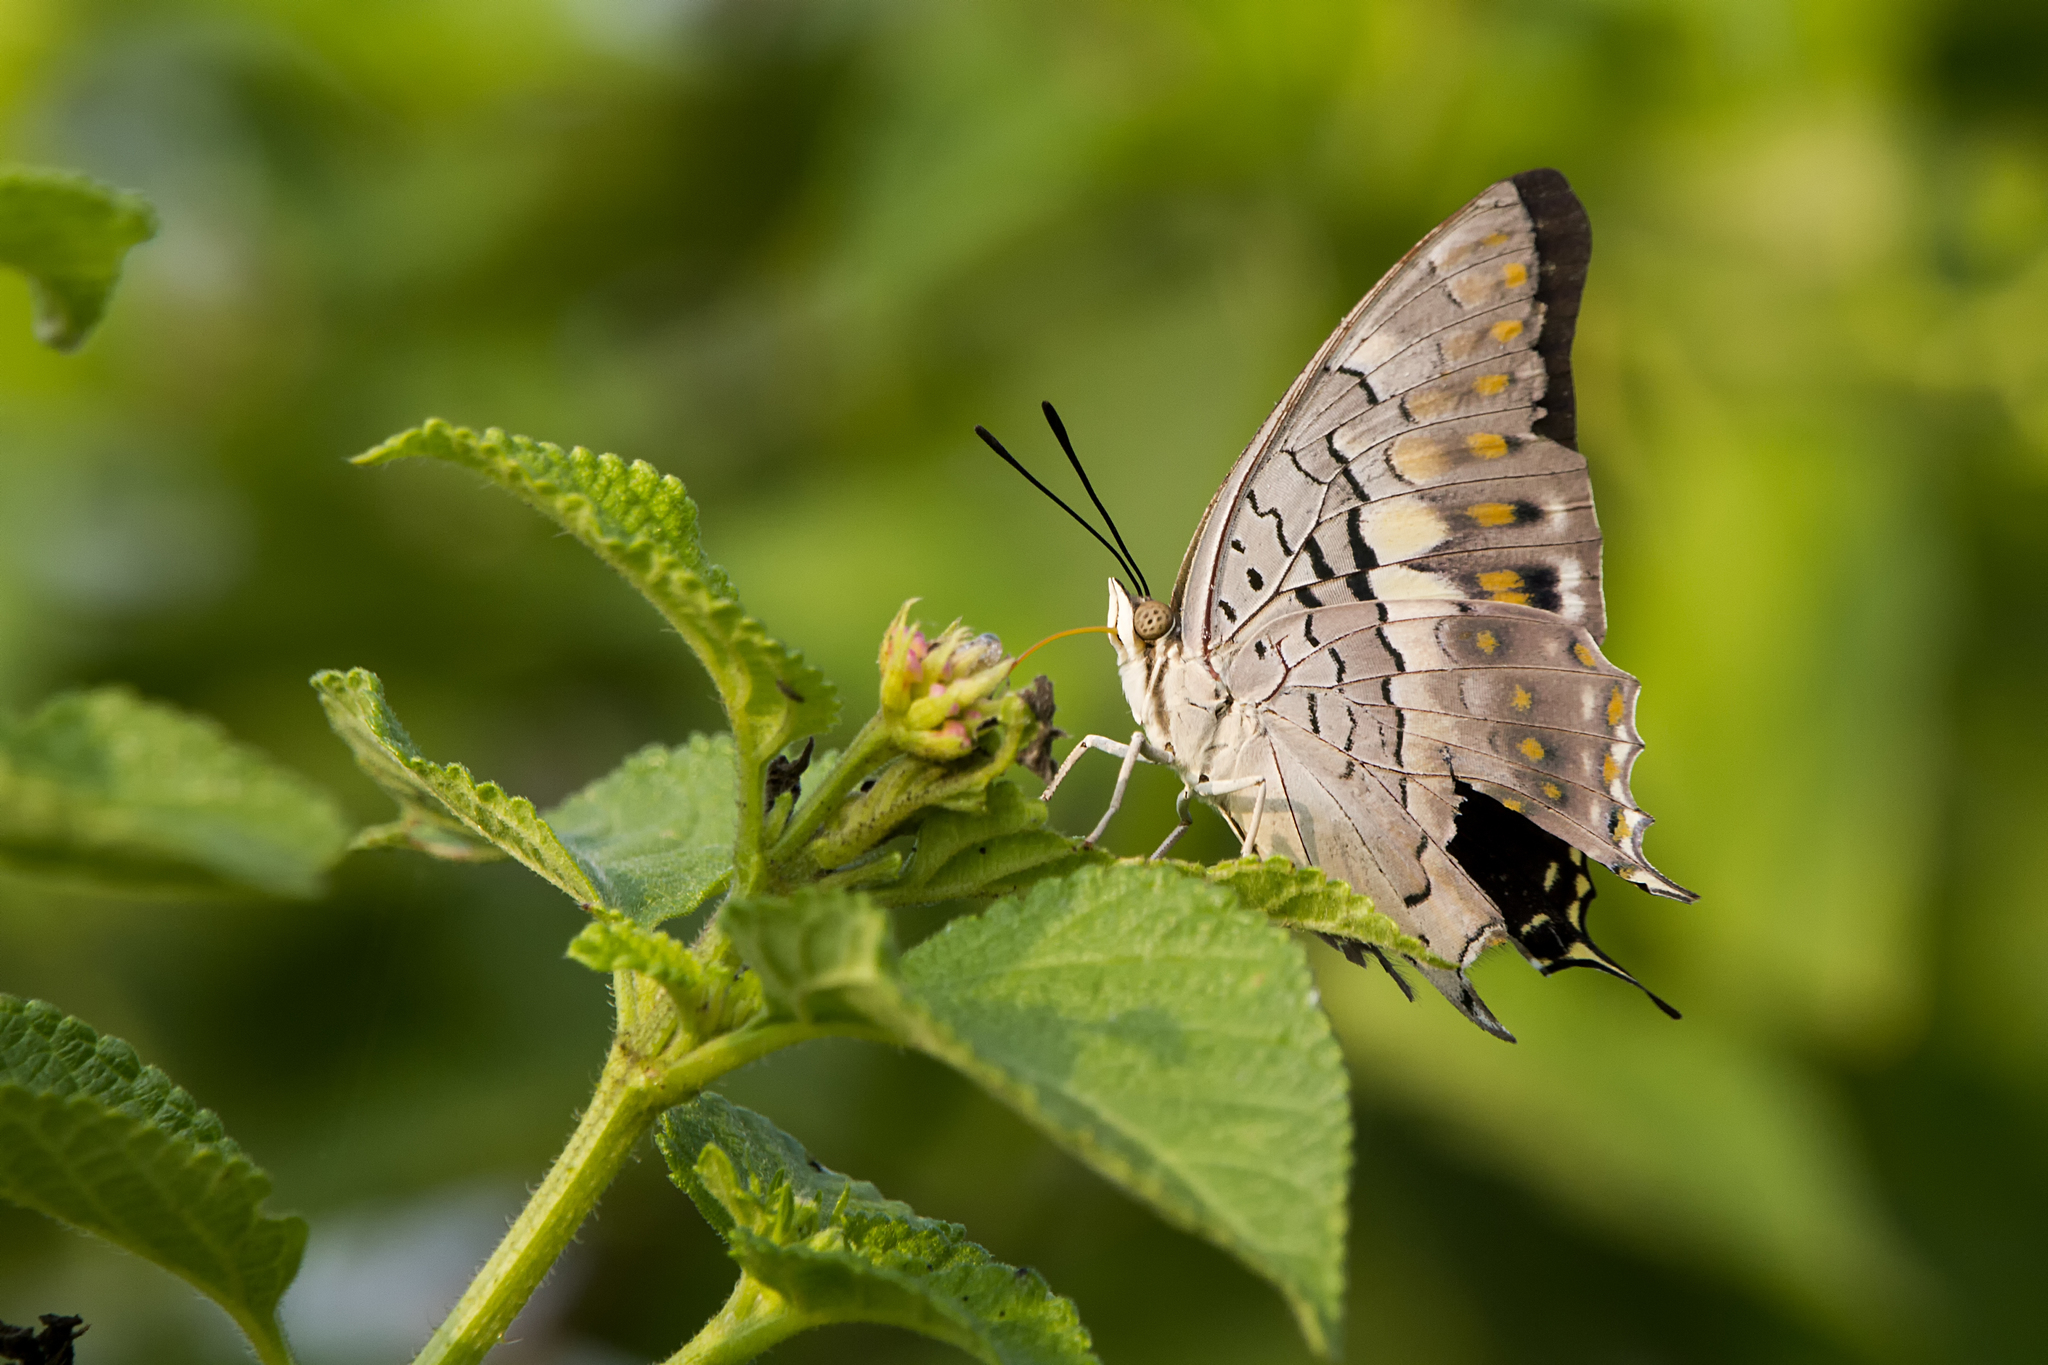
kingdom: Animalia
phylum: Arthropoda
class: Insecta
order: Lepidoptera
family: Nymphalidae
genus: Charaxes
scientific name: Charaxes solon
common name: Black rajah
